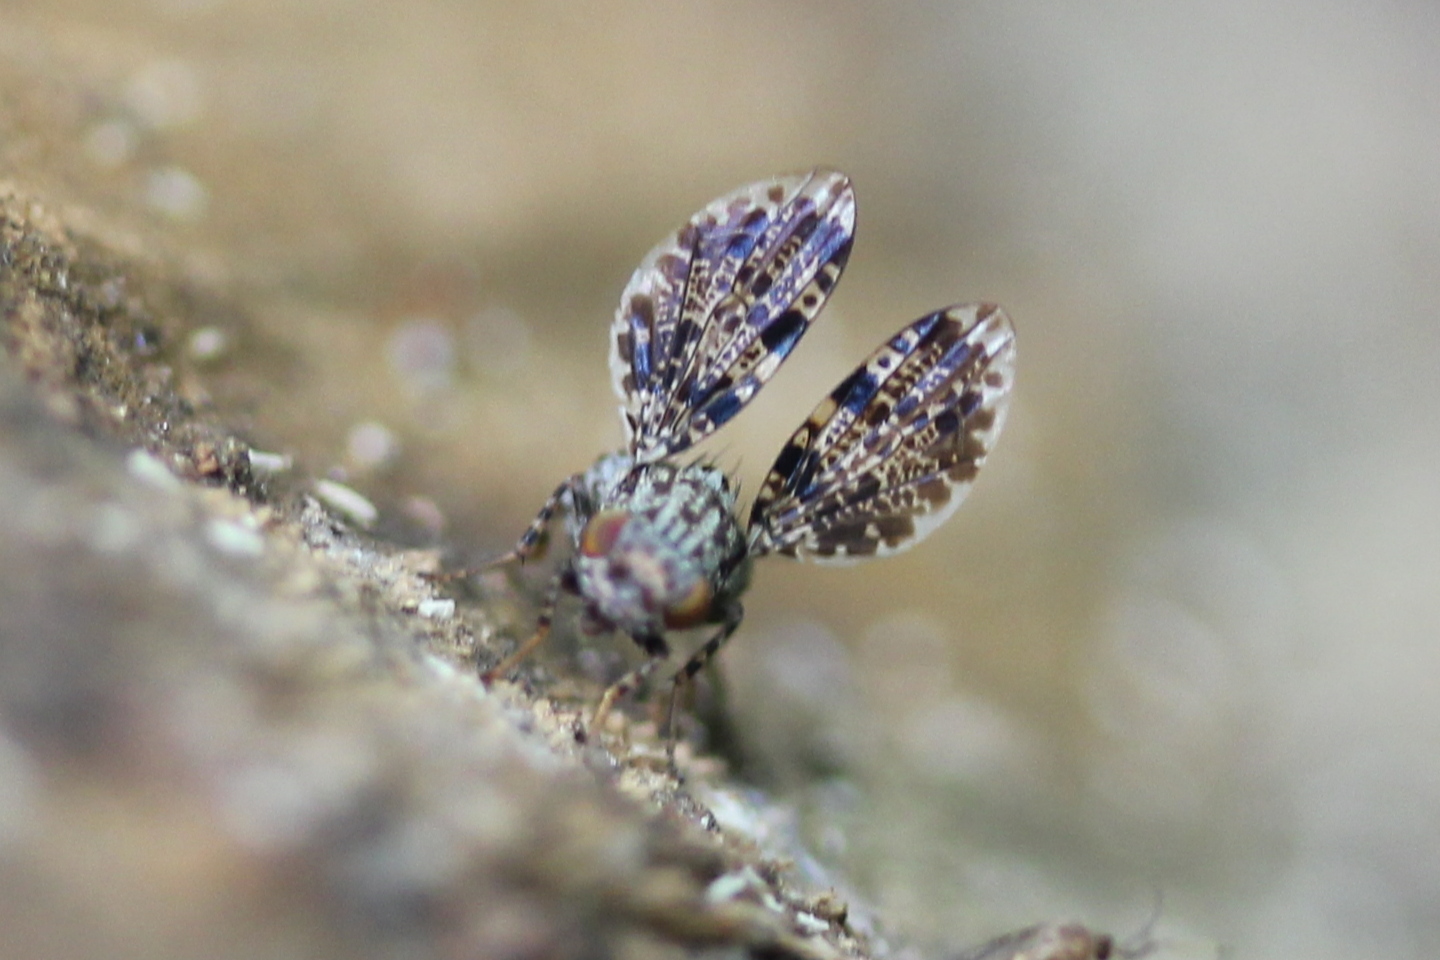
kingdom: Animalia
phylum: Arthropoda
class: Insecta
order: Diptera
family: Ulidiidae
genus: Callopistromyia
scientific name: Callopistromyia annulipes
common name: Peacock fly
